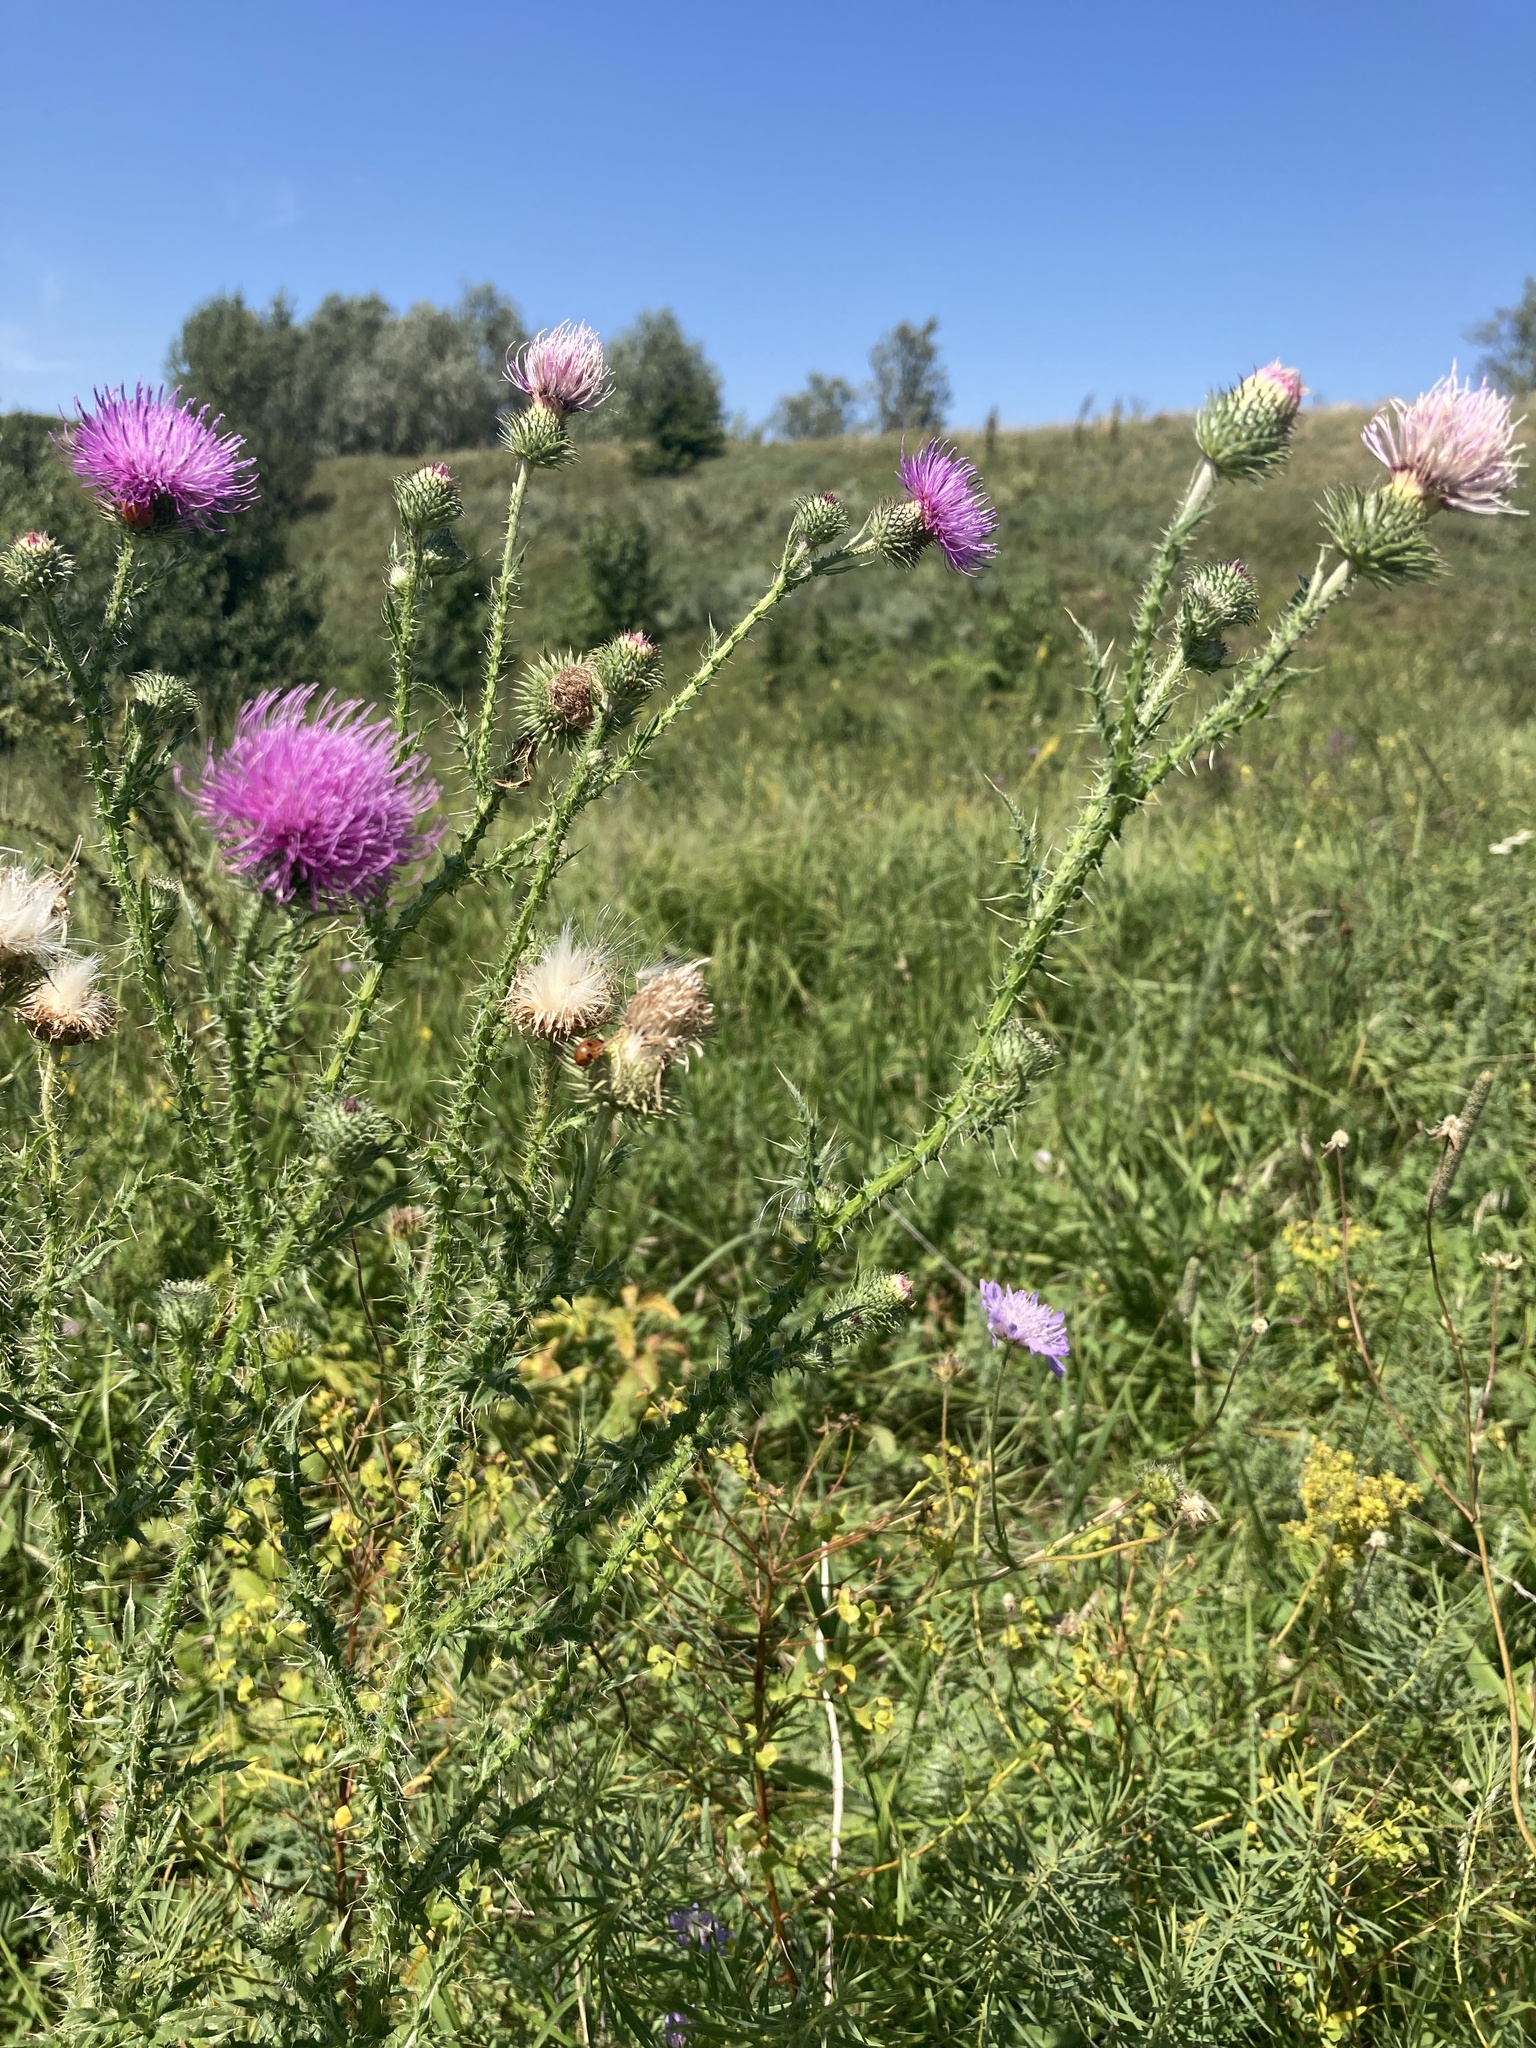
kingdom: Plantae
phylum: Tracheophyta
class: Magnoliopsida
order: Asterales
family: Asteraceae
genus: Carduus
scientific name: Carduus acanthoides
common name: Plumeless thistle
